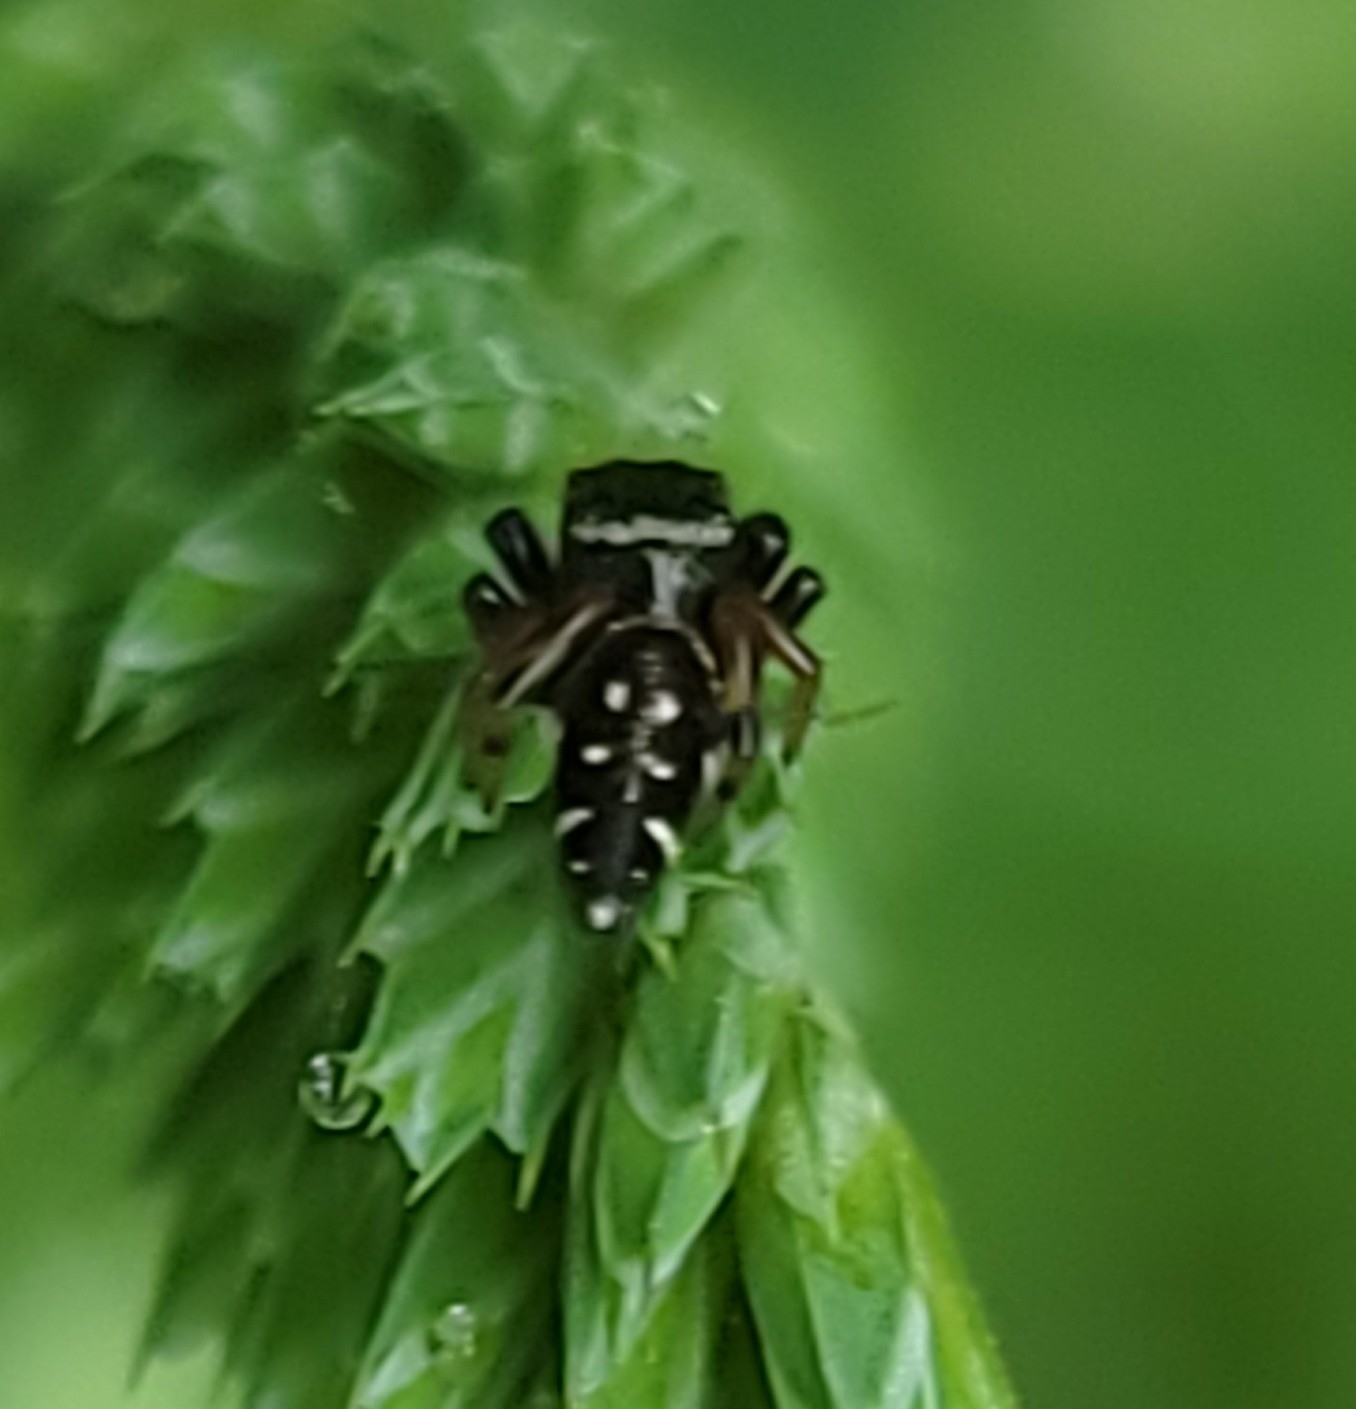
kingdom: Animalia
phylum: Arthropoda
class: Arachnida
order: Araneae
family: Salticidae
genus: Paraphidippus
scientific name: Paraphidippus aurantius
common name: Jumping spiders
